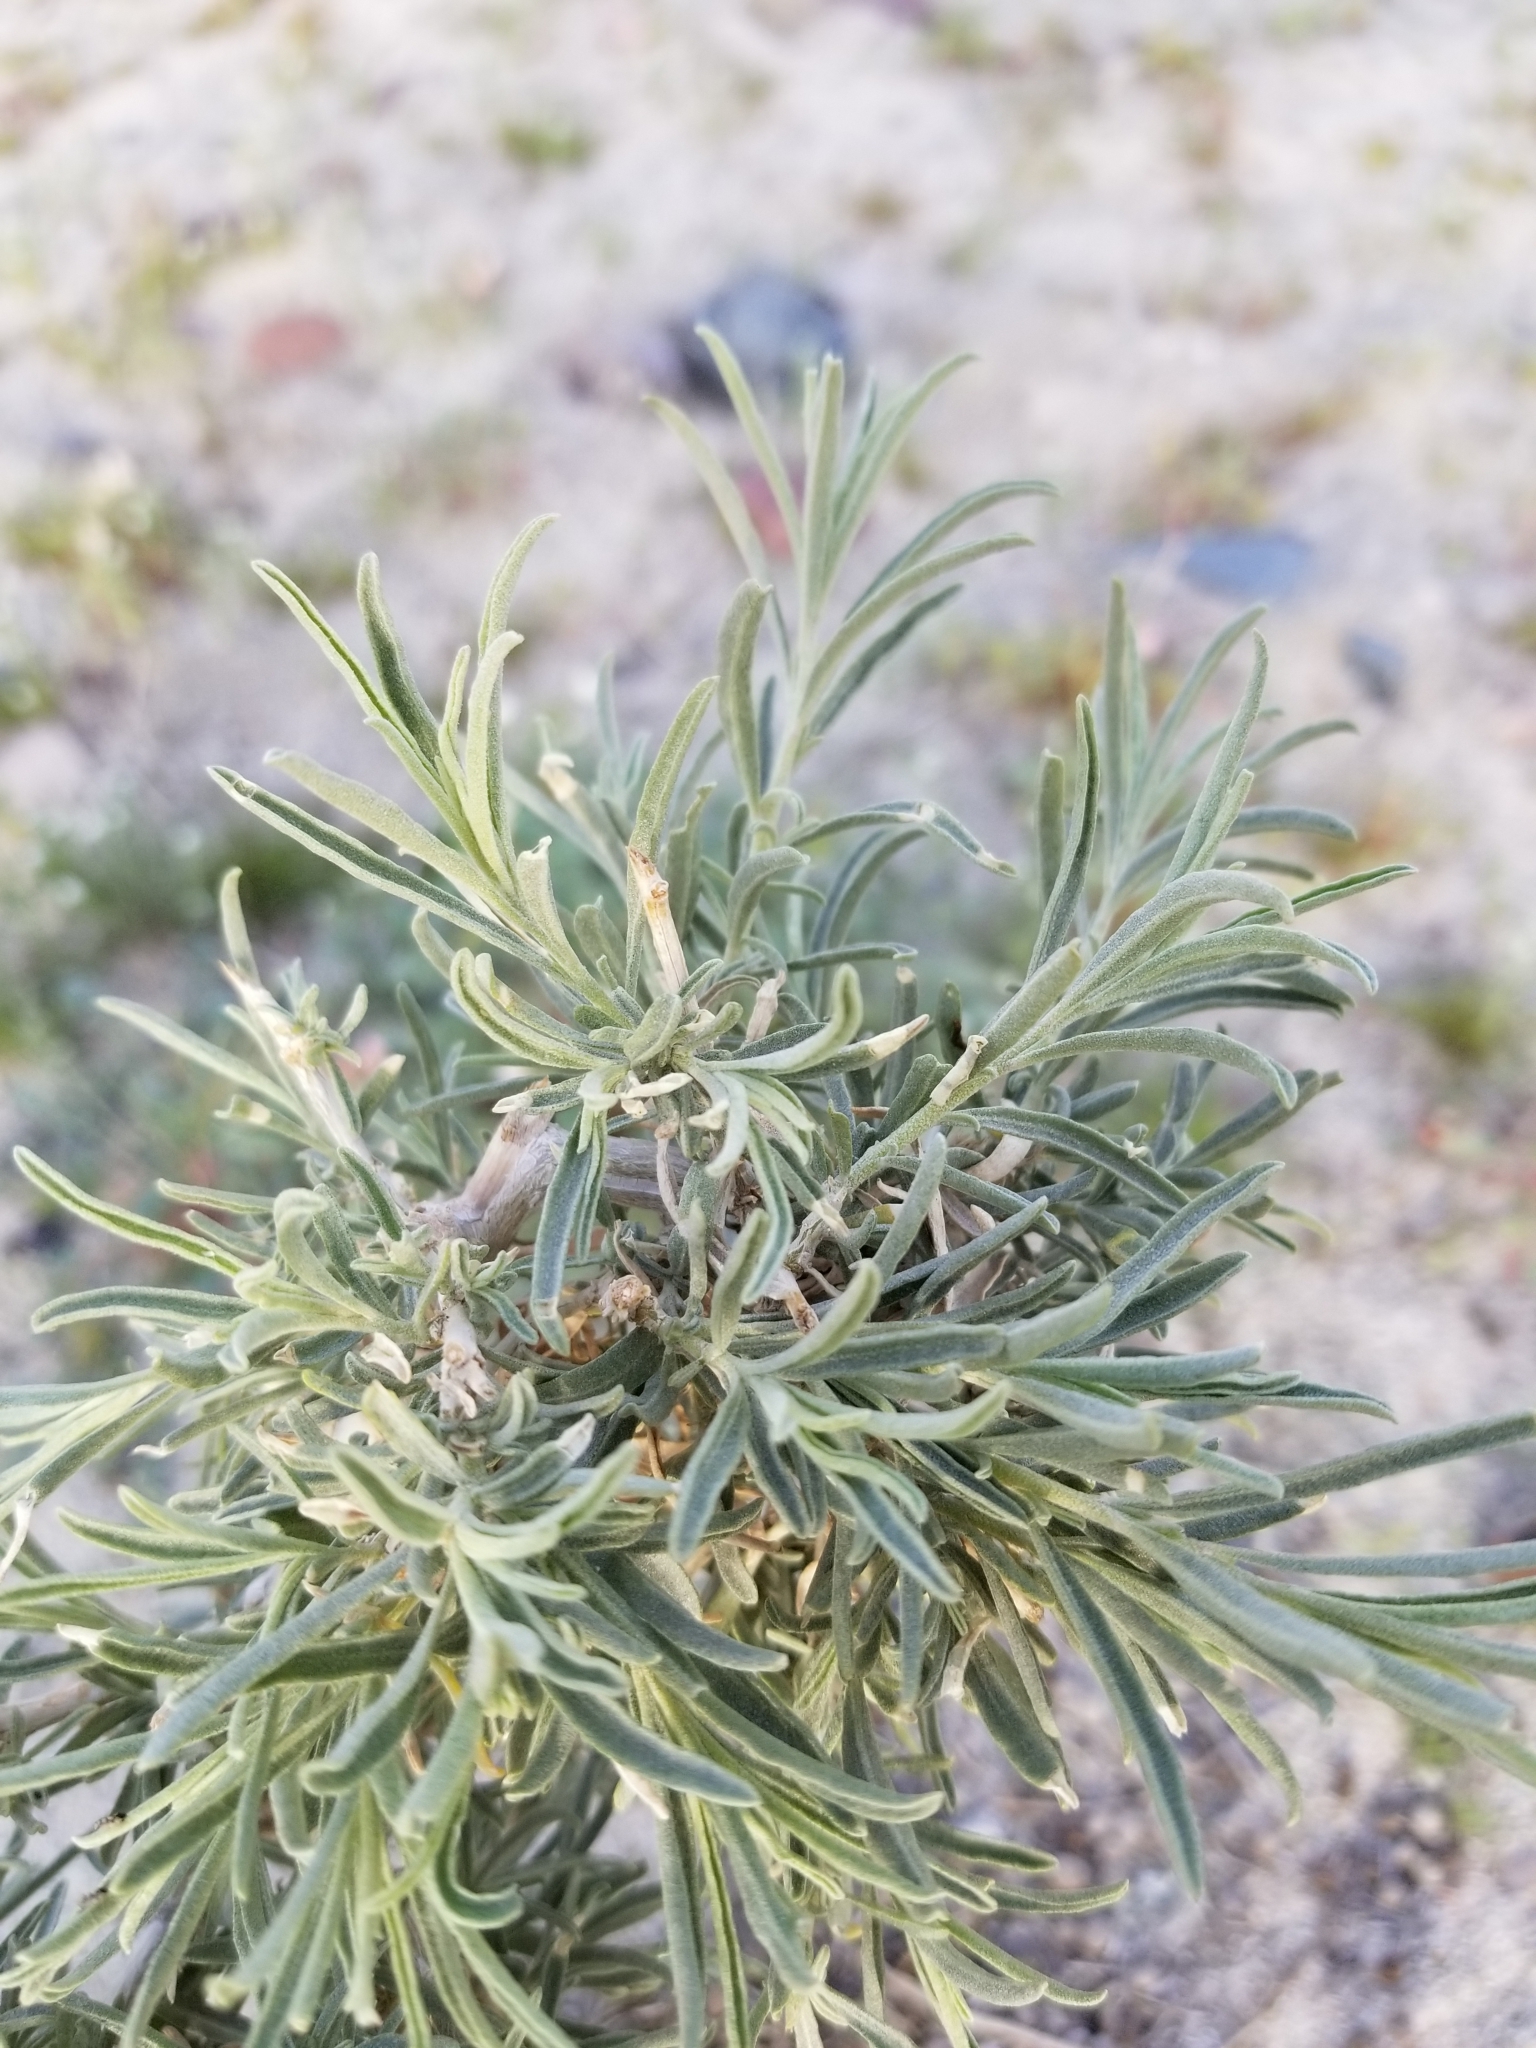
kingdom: Plantae
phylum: Tracheophyta
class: Magnoliopsida
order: Caryophyllales
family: Amaranthaceae
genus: Atriplex
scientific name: Atriplex canescens
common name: Four-wing saltbush
